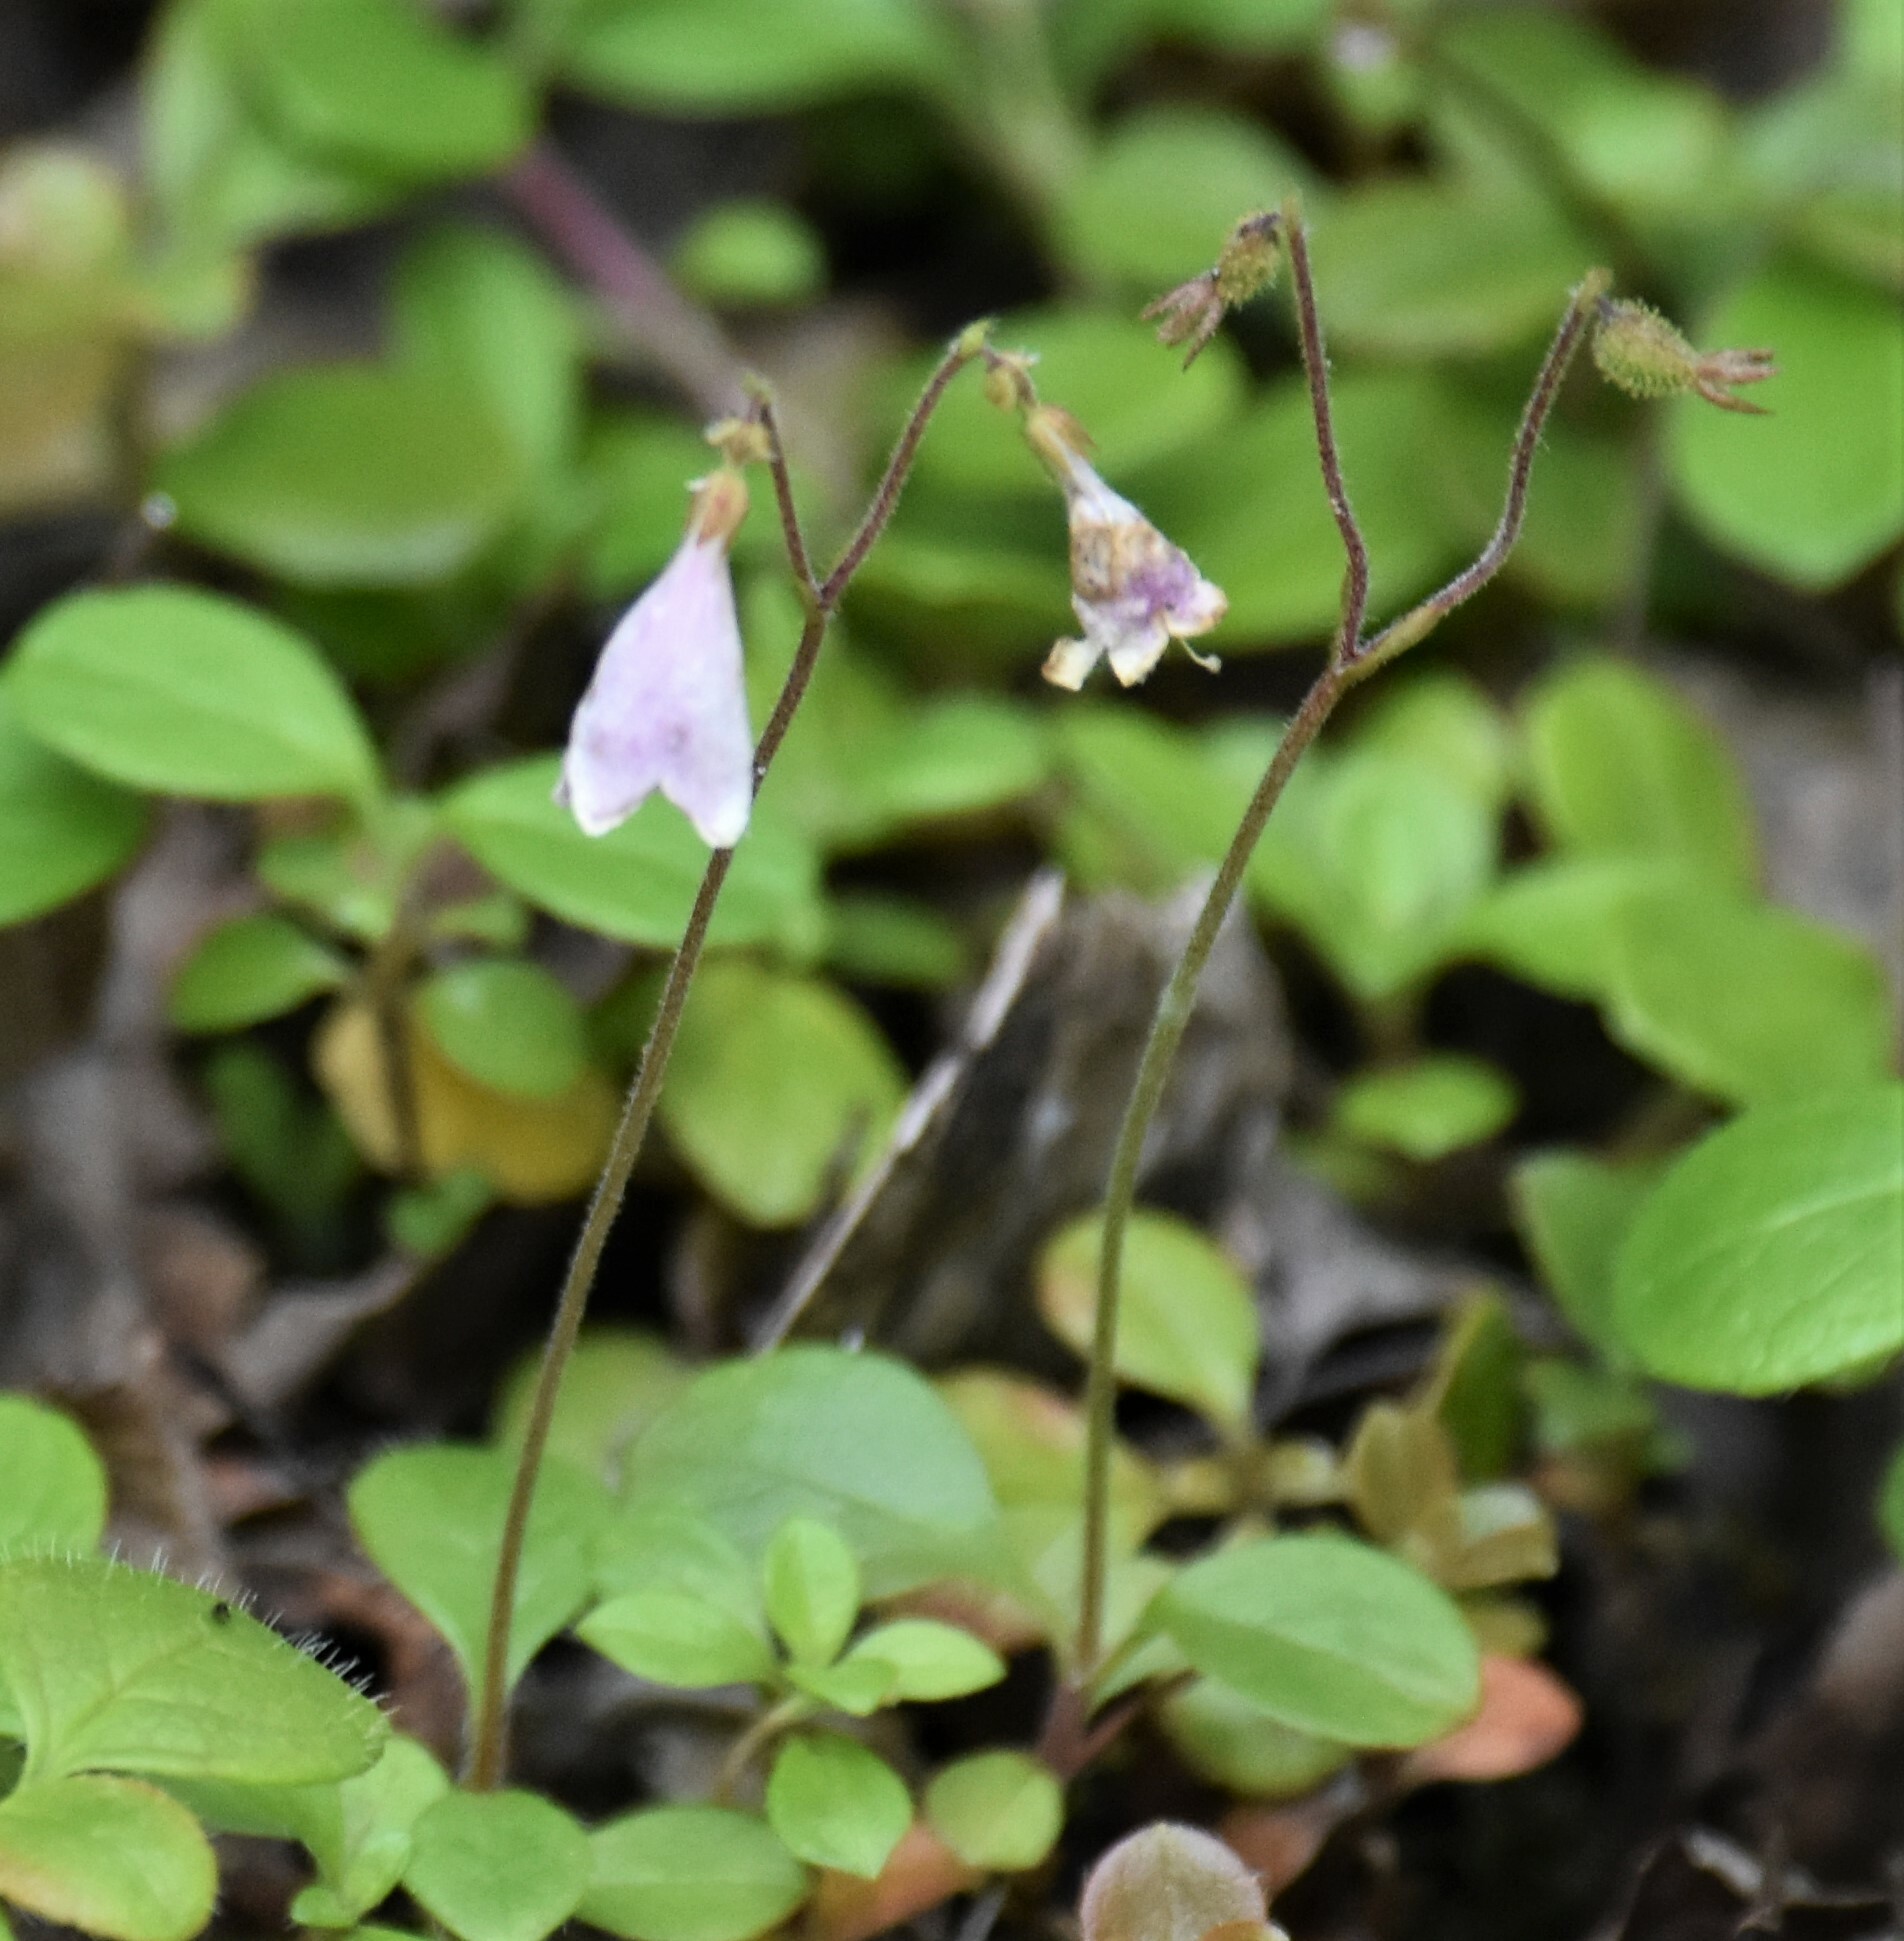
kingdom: Plantae
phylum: Tracheophyta
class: Magnoliopsida
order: Dipsacales
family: Caprifoliaceae
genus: Linnaea
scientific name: Linnaea borealis
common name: Twinflower
